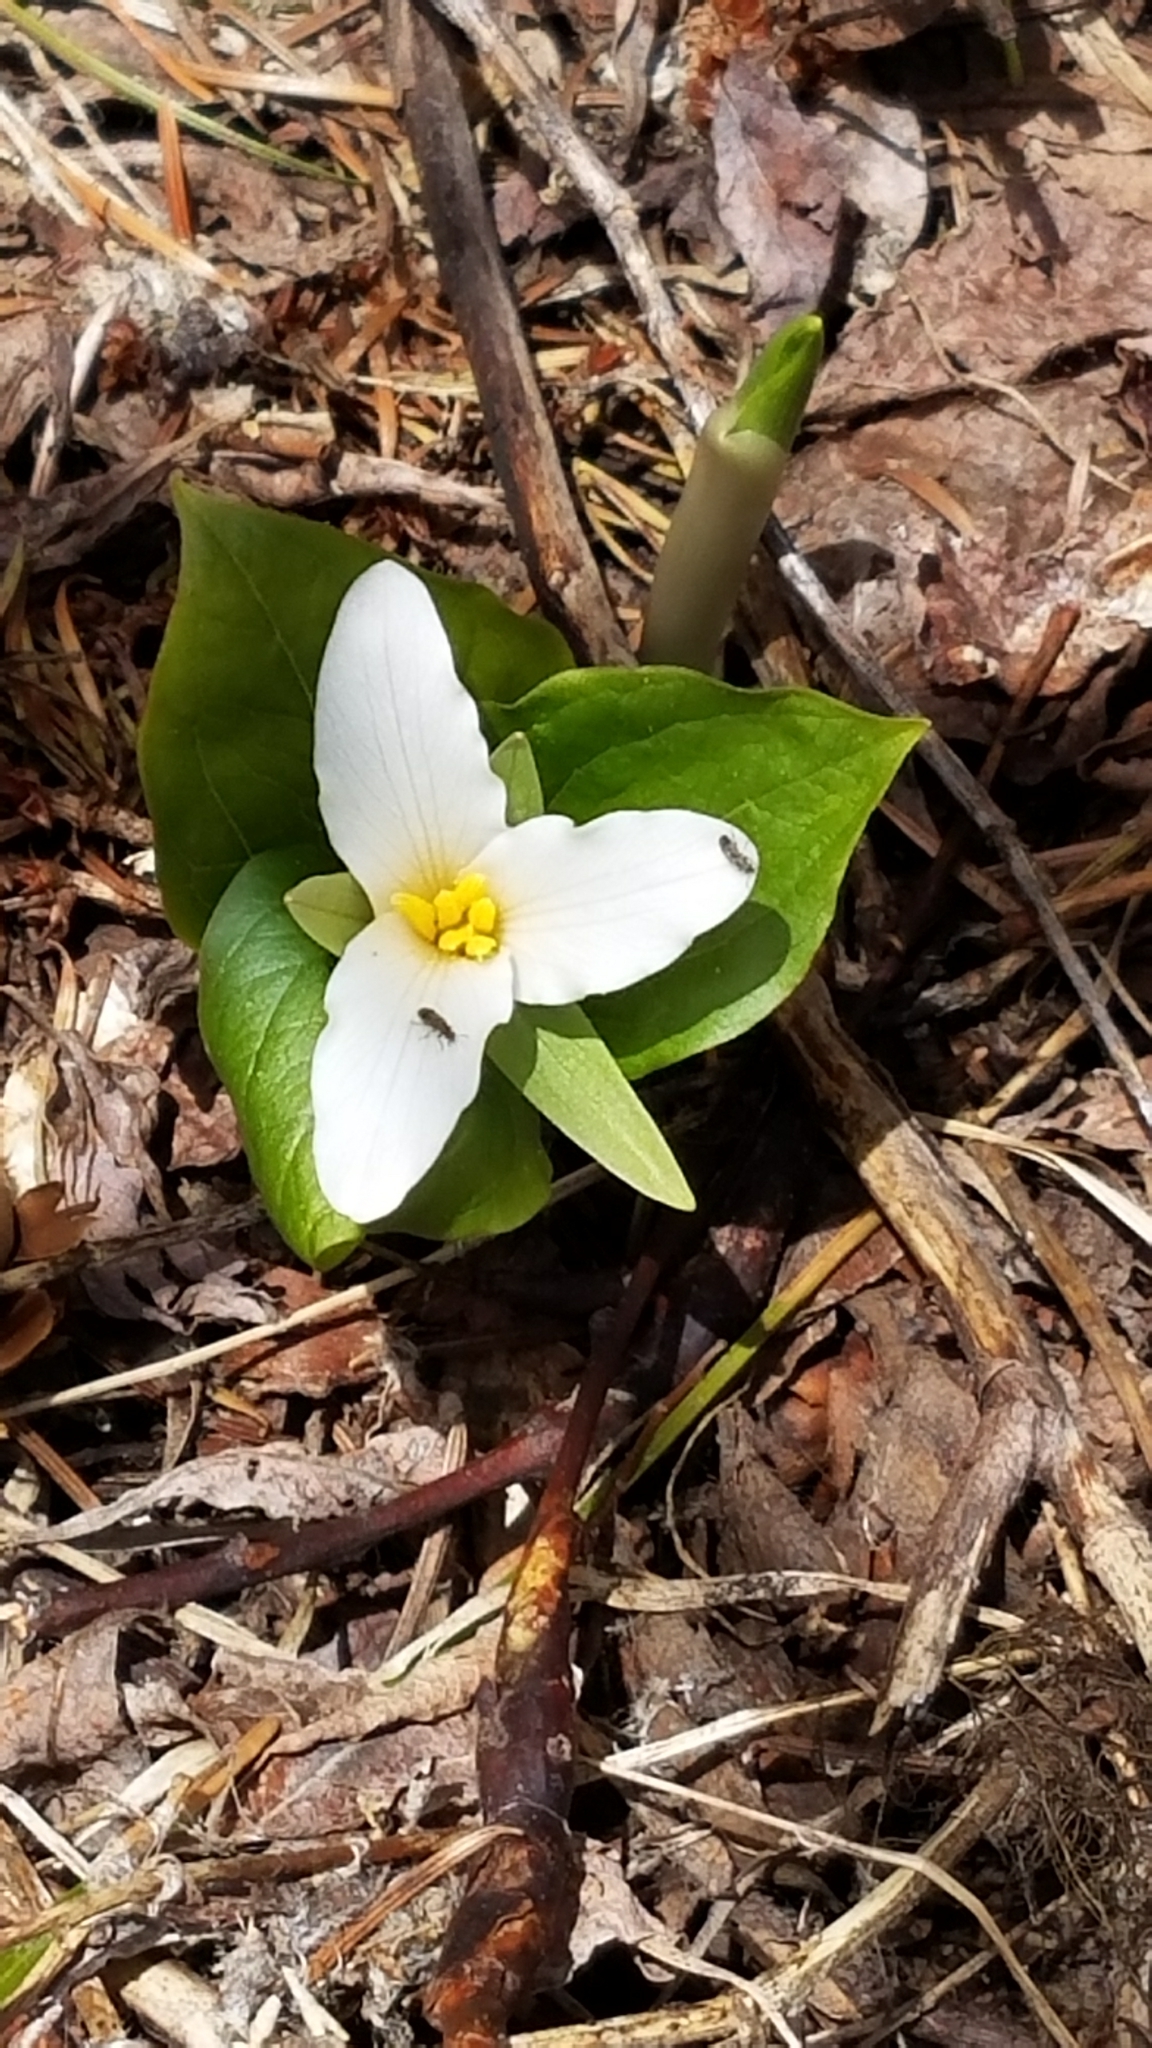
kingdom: Plantae
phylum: Tracheophyta
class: Liliopsida
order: Liliales
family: Melanthiaceae
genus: Trillium
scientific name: Trillium ovatum
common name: Pacific trillium
